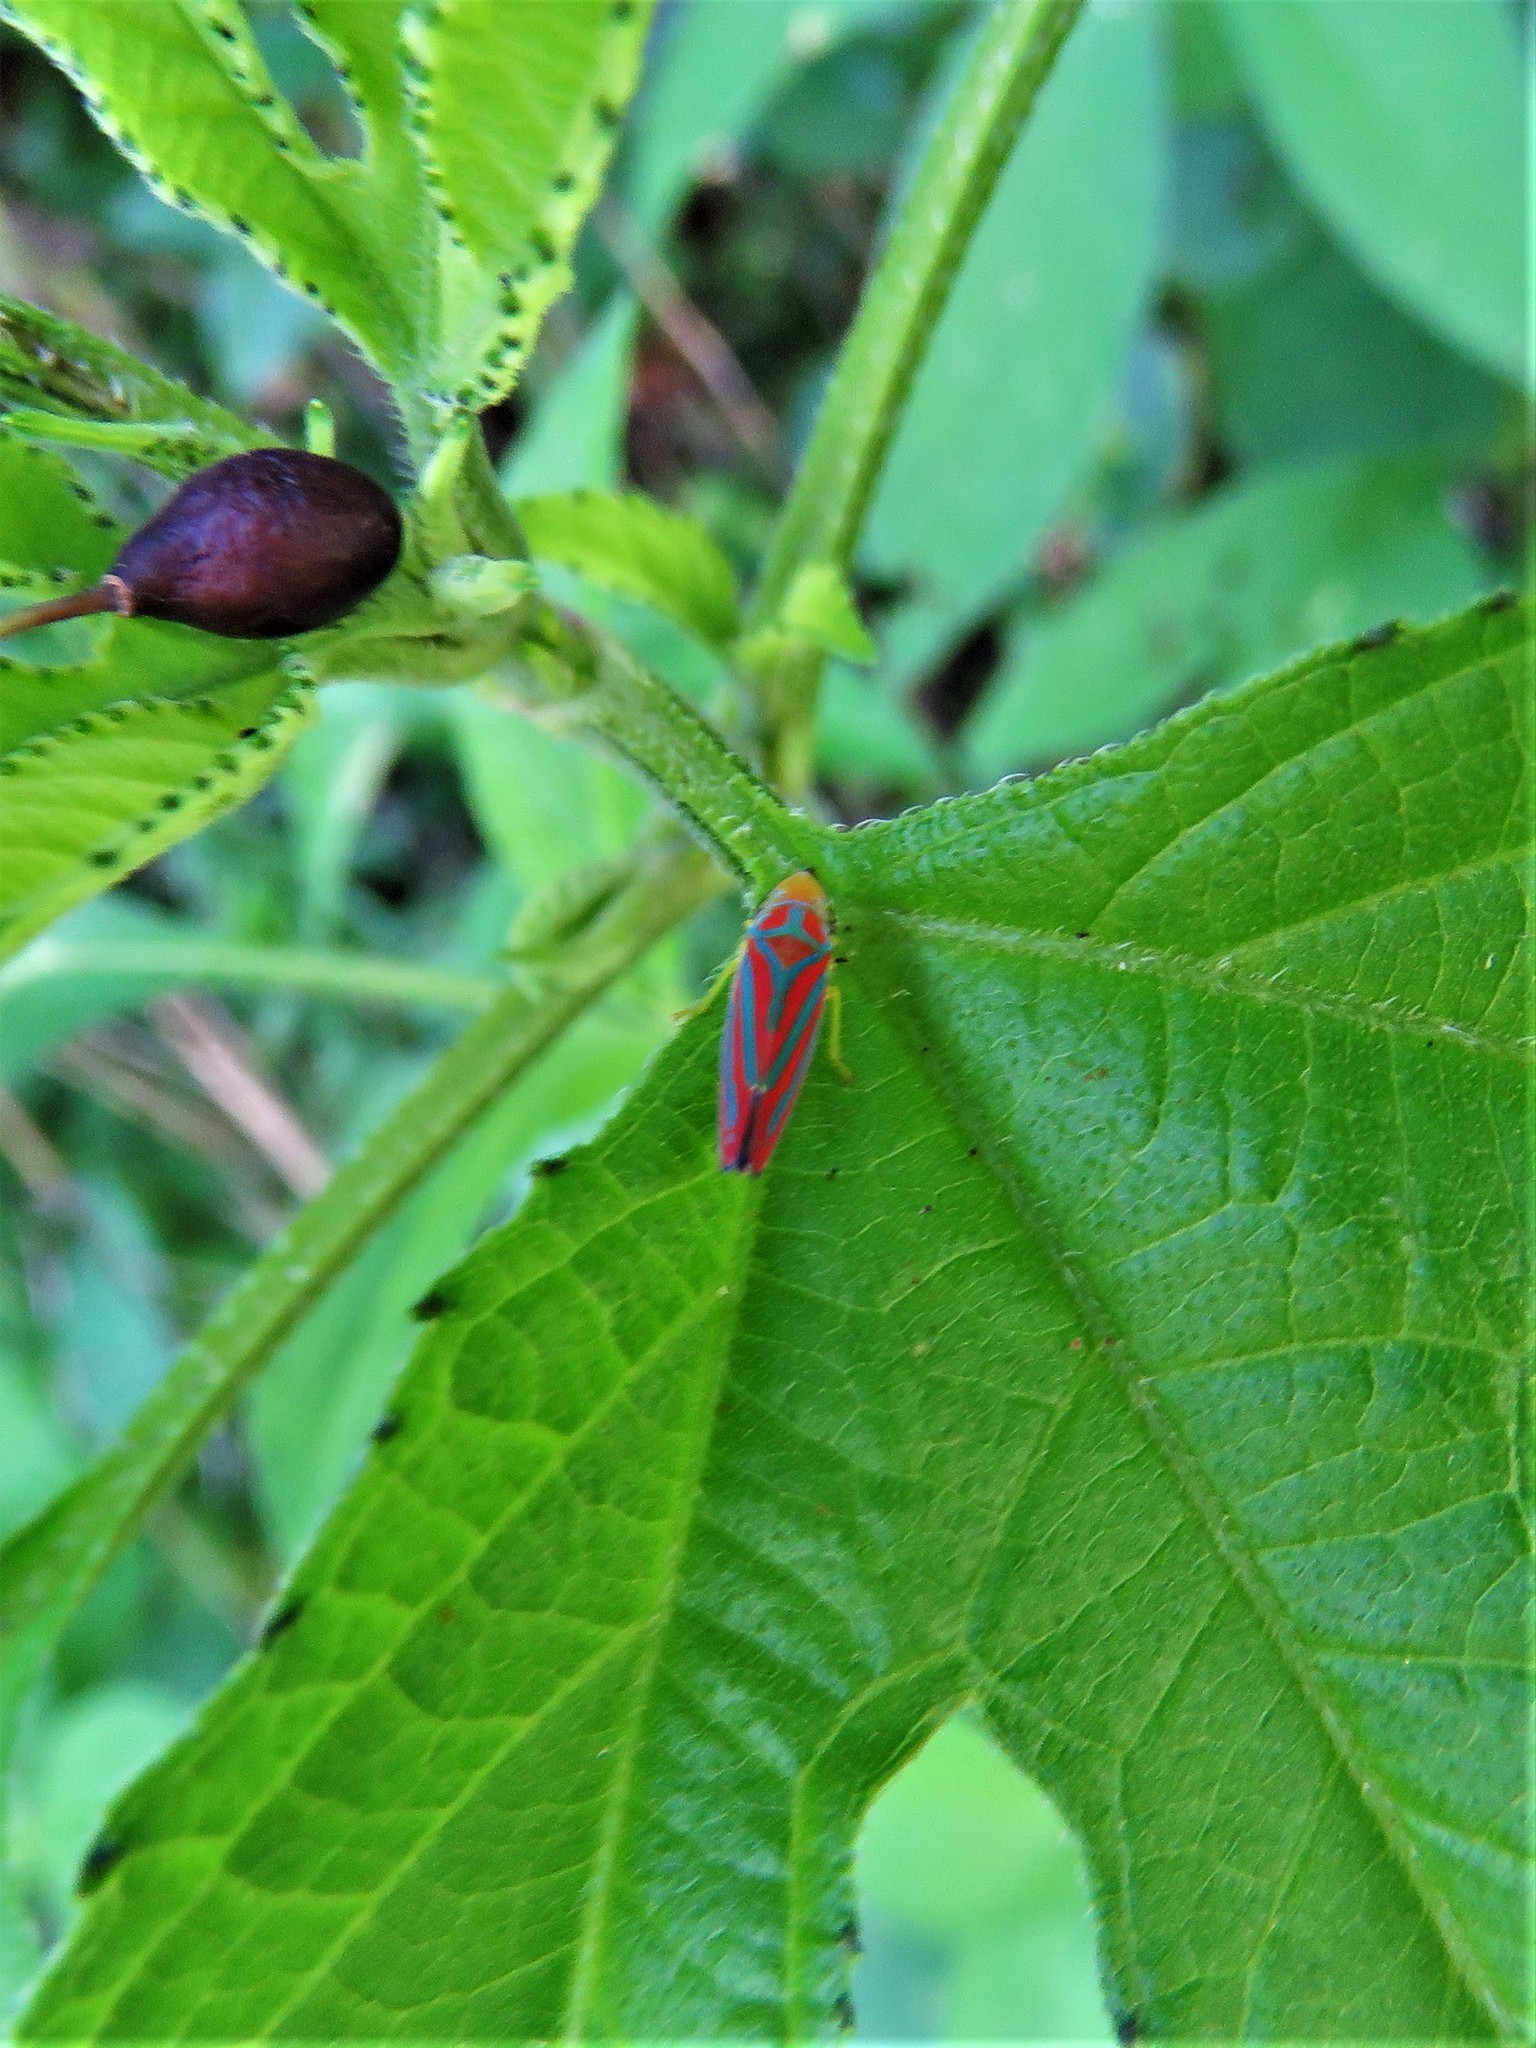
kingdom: Animalia
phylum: Arthropoda
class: Insecta
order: Hemiptera
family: Cicadellidae
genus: Graphocephala
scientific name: Graphocephala coccinea
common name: Candy-striped leafhopper
